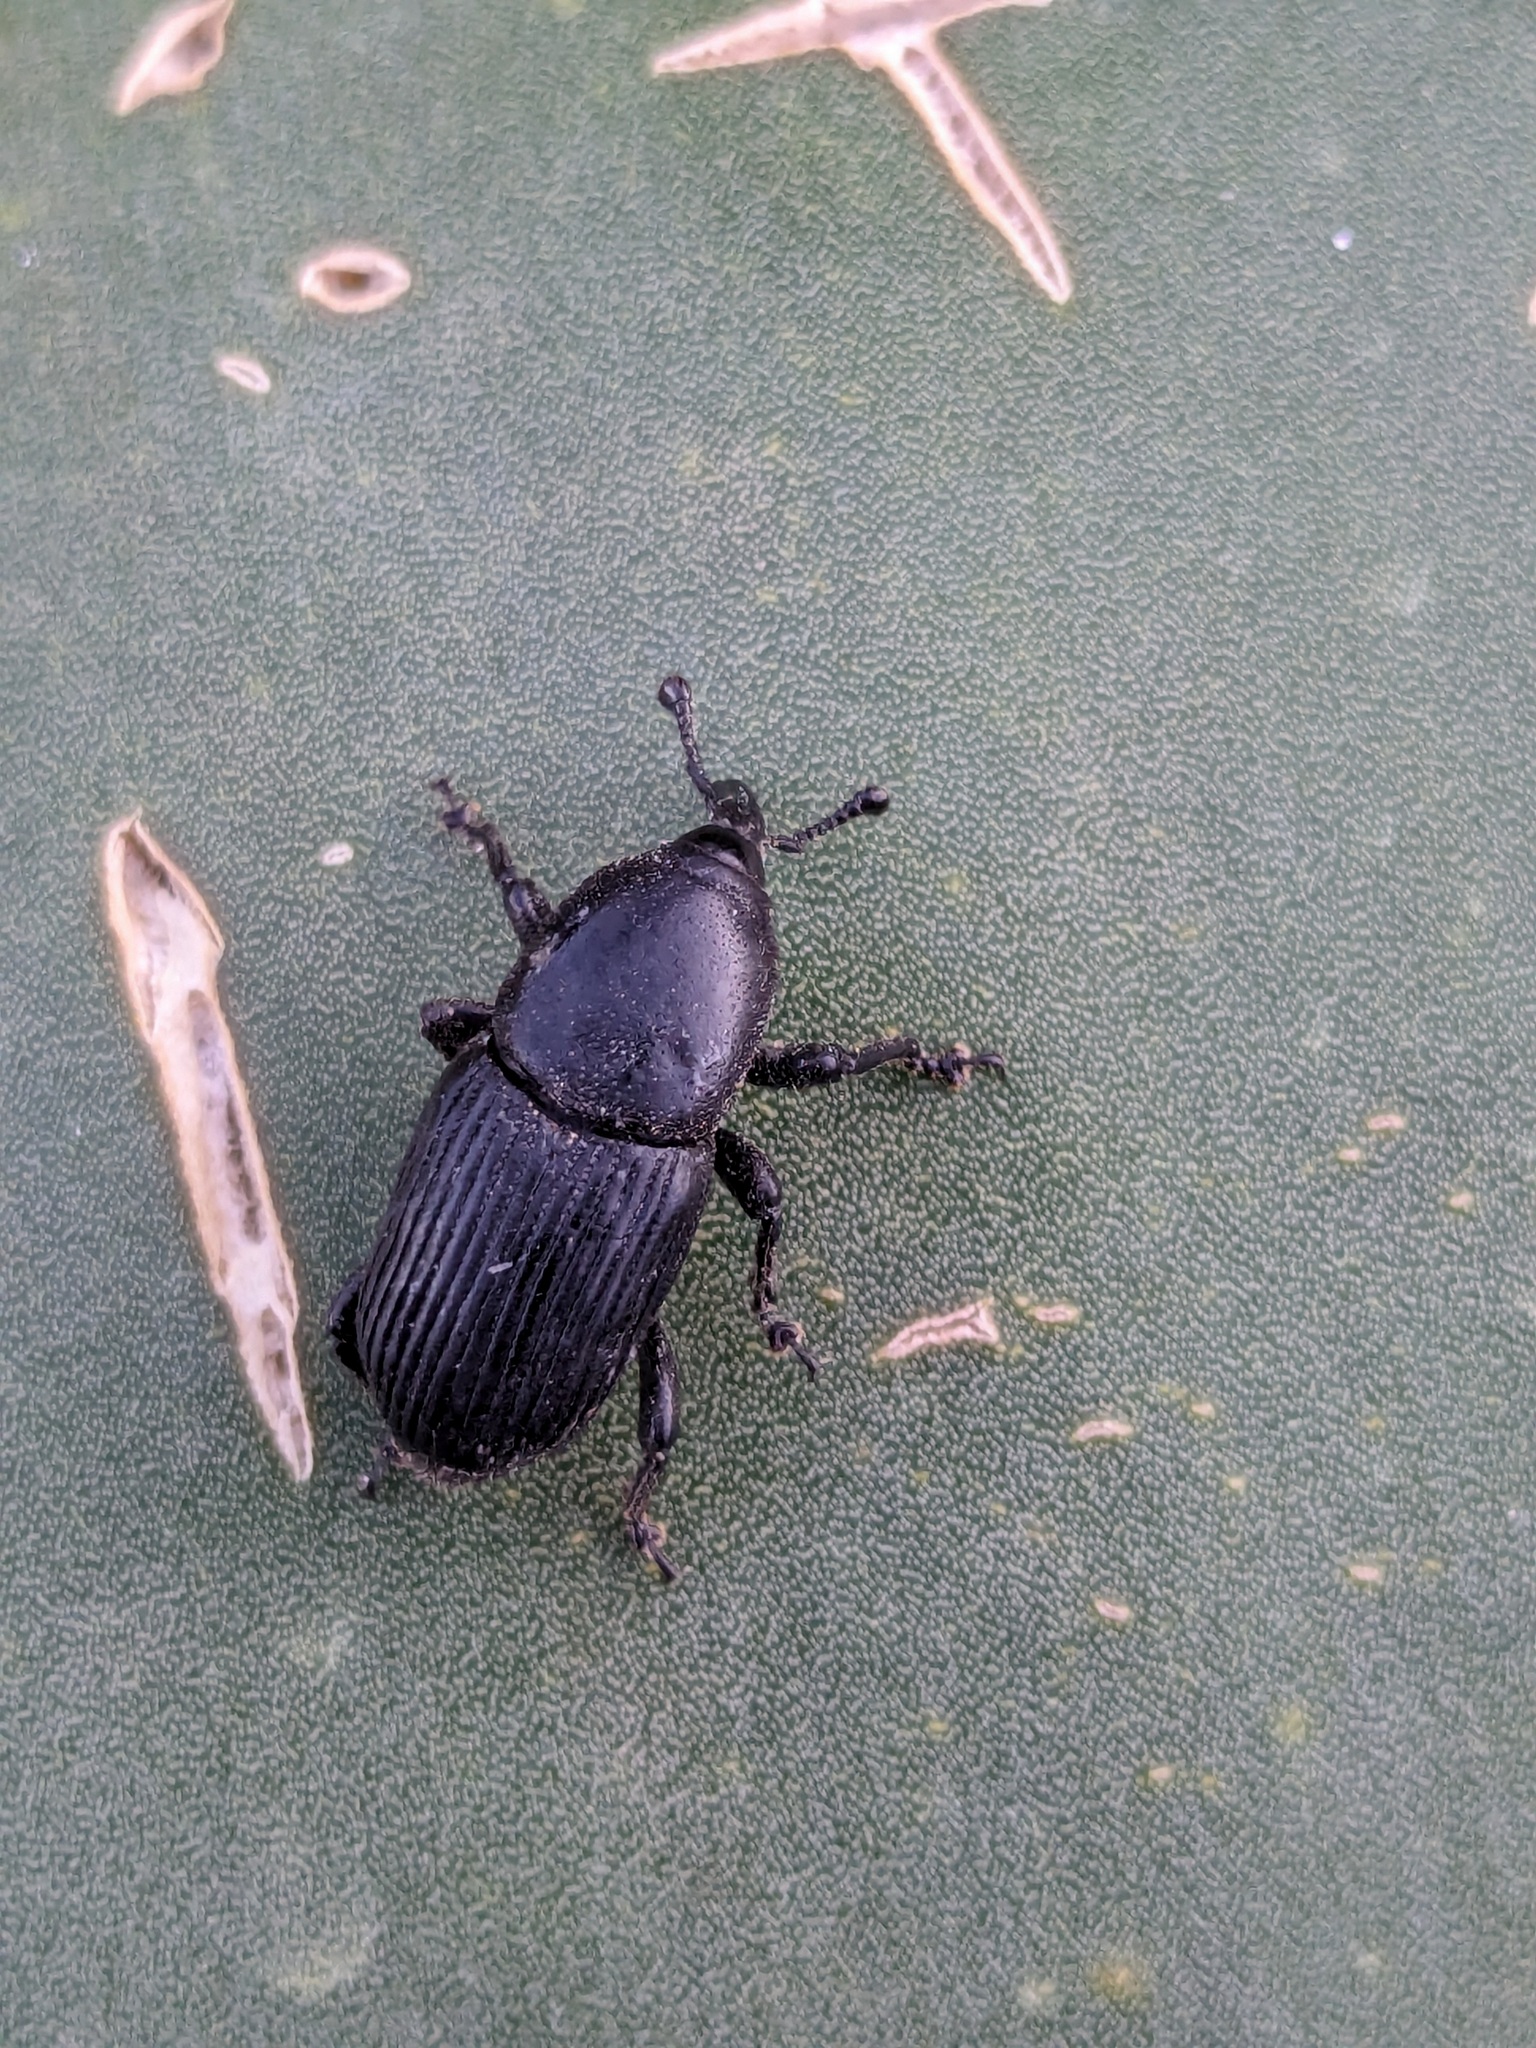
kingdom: Animalia
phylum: Arthropoda
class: Insecta
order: Coleoptera
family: Dryophthoridae
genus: Scyphophorus
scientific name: Scyphophorus acupunctatus
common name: Weevil
